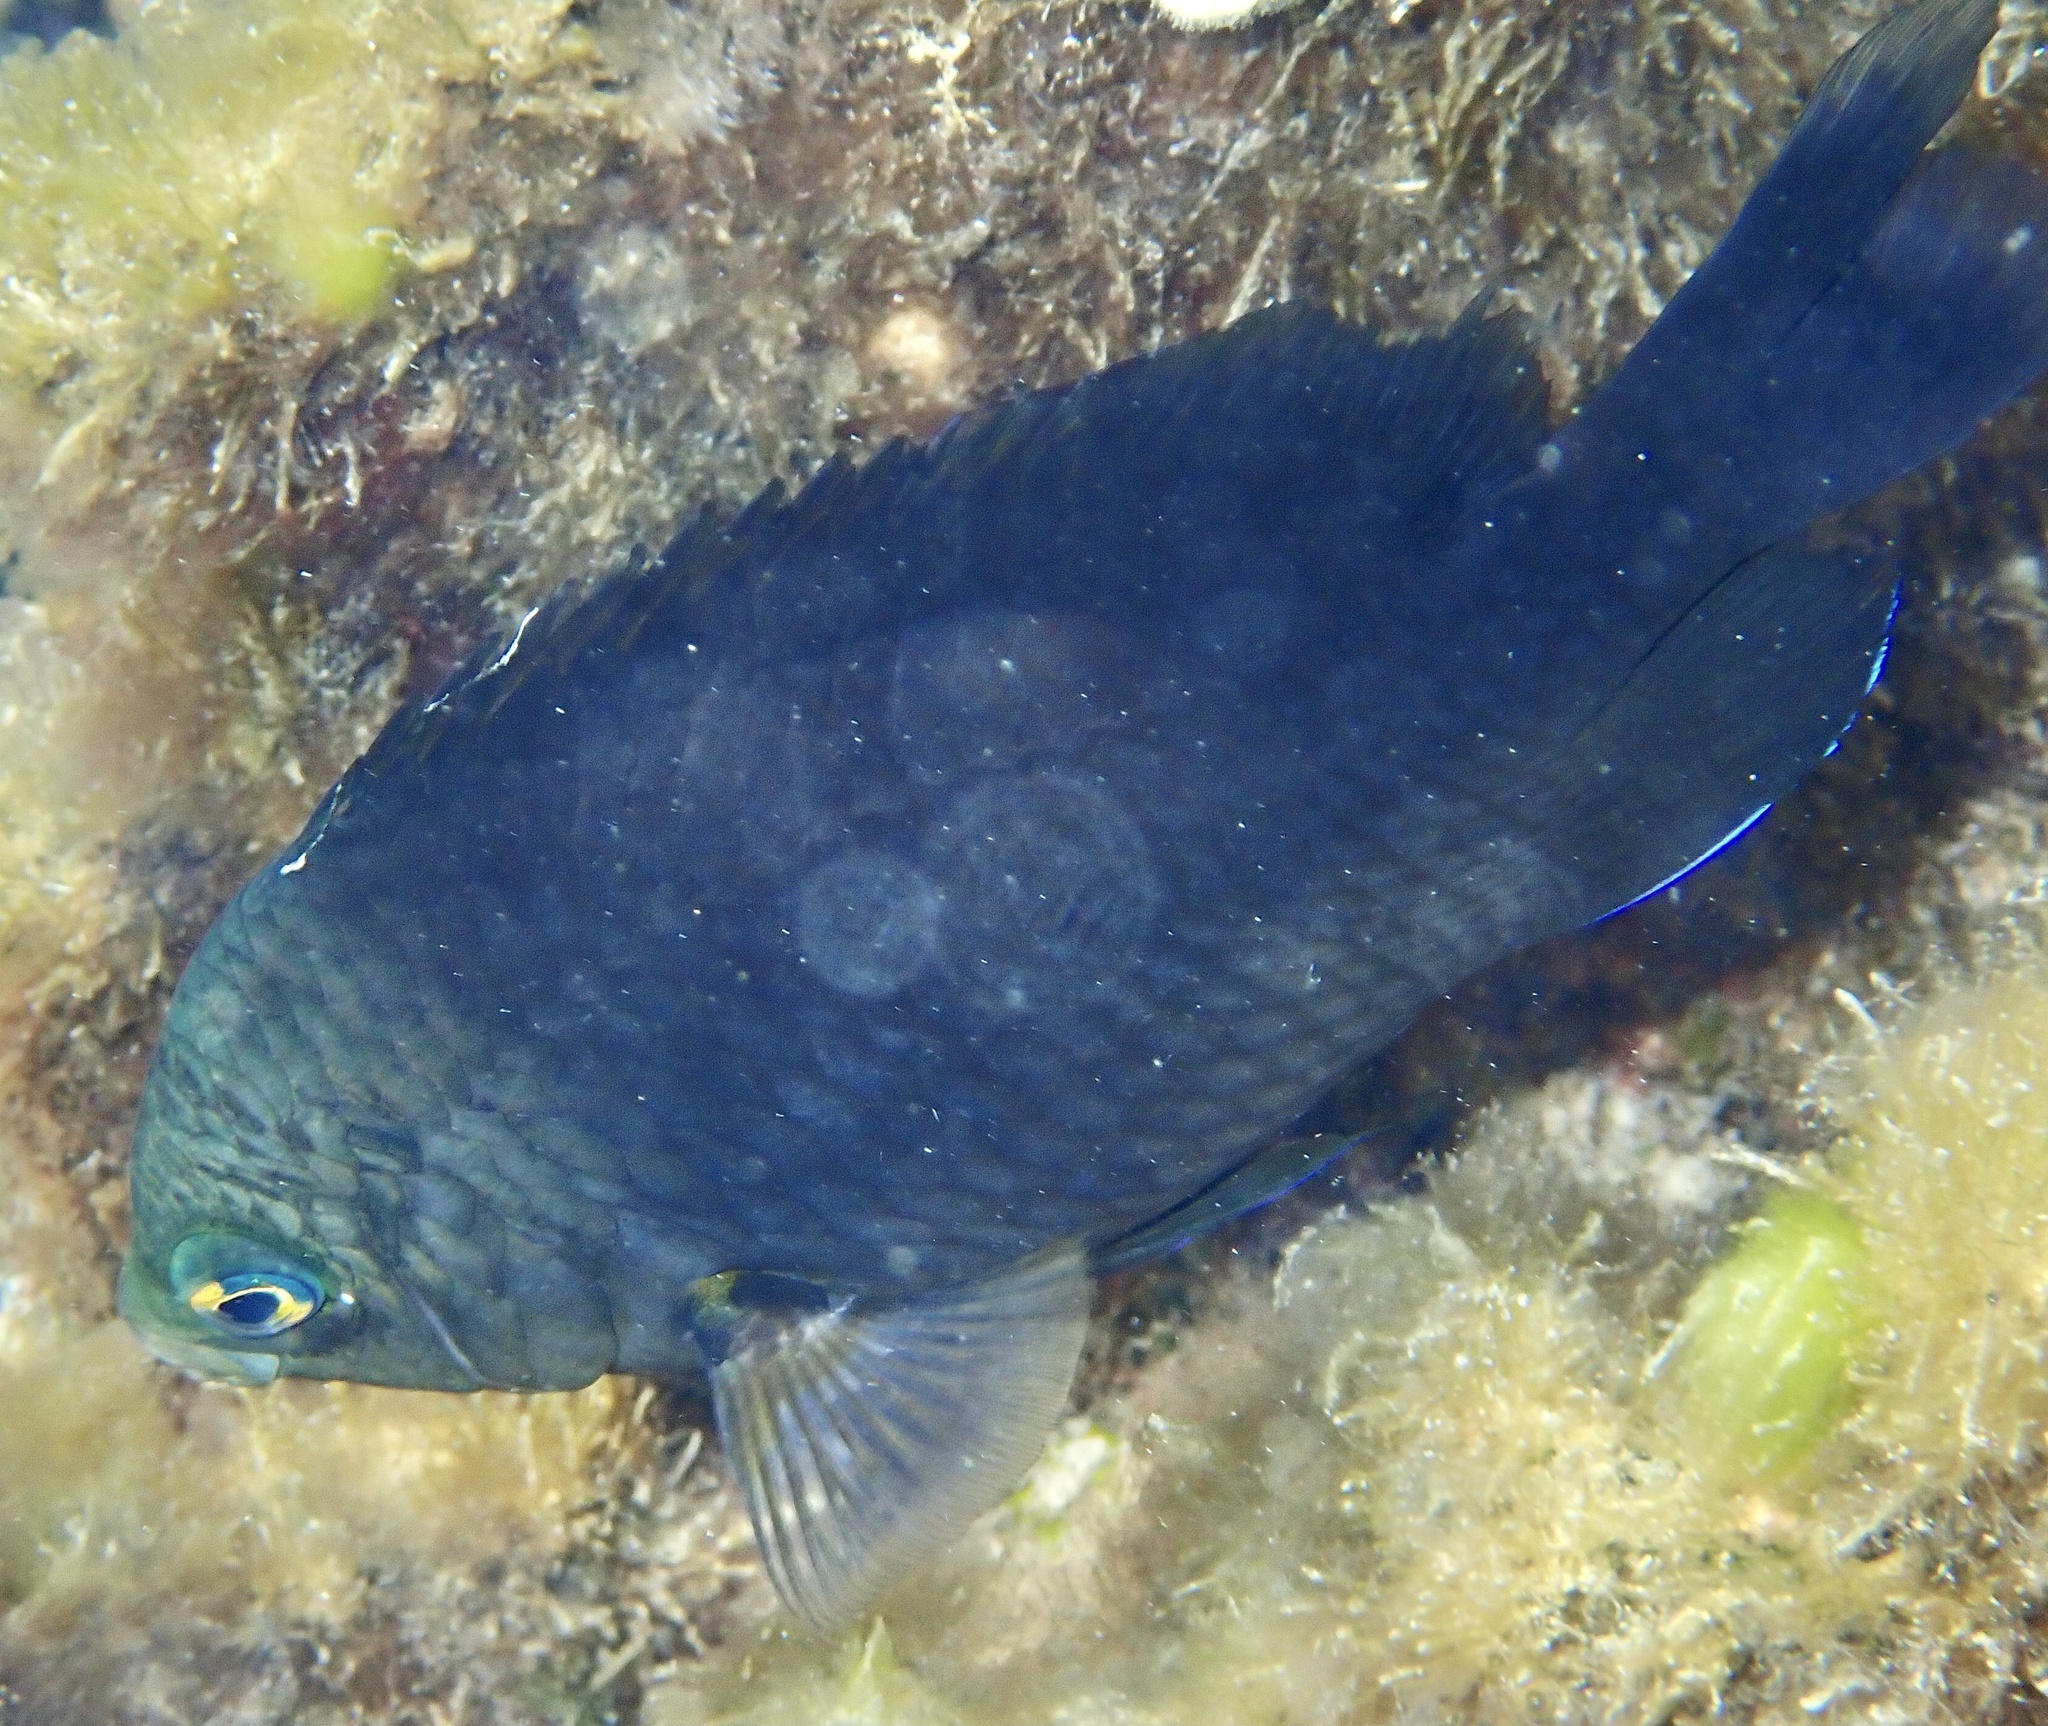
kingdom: Animalia
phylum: Chordata
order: Perciformes
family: Pomacentridae
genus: Stegastes
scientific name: Stegastes nigricans
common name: Dusky gregory
